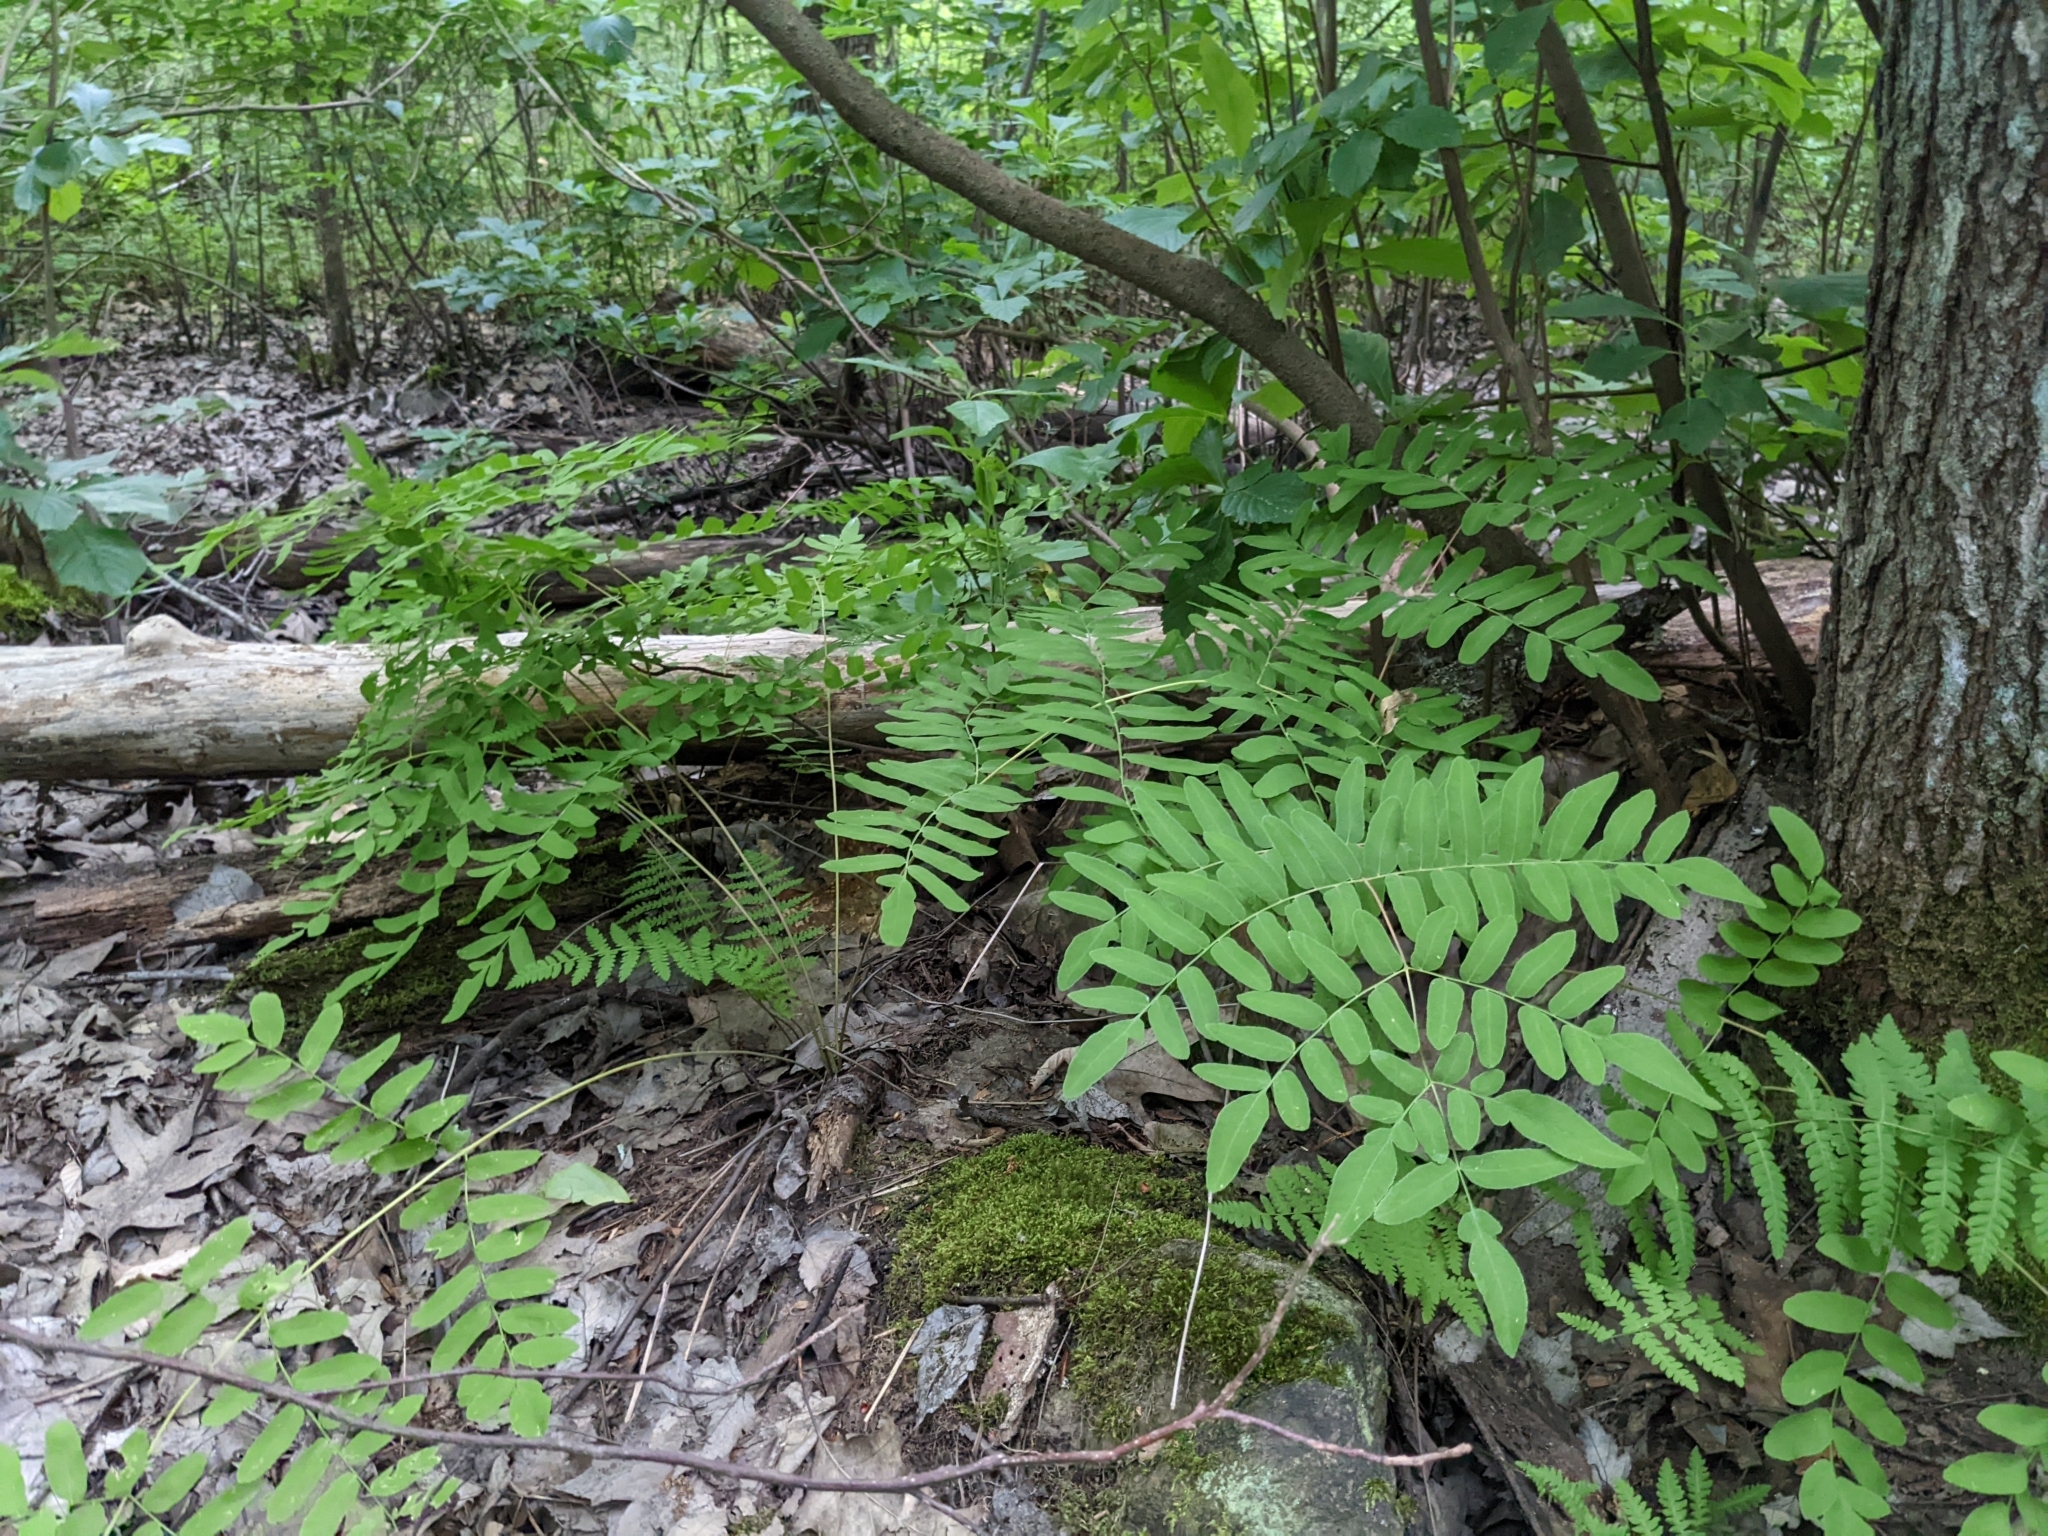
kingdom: Plantae
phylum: Tracheophyta
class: Polypodiopsida
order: Osmundales
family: Osmundaceae
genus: Osmunda
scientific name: Osmunda spectabilis
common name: American royal fern
